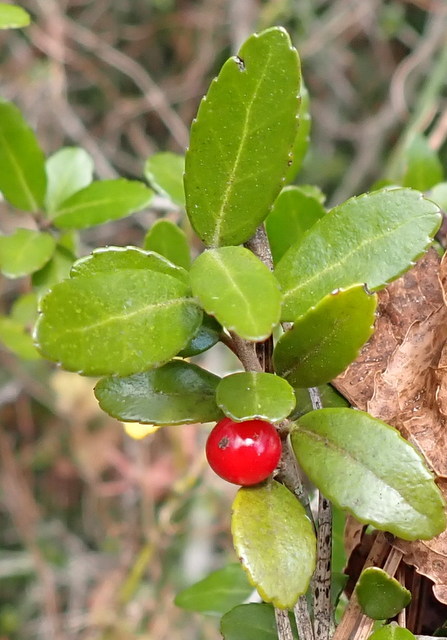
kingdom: Plantae
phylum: Tracheophyta
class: Magnoliopsida
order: Aquifoliales
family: Aquifoliaceae
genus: Ilex
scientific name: Ilex vomitoria
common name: Yaupon holly
